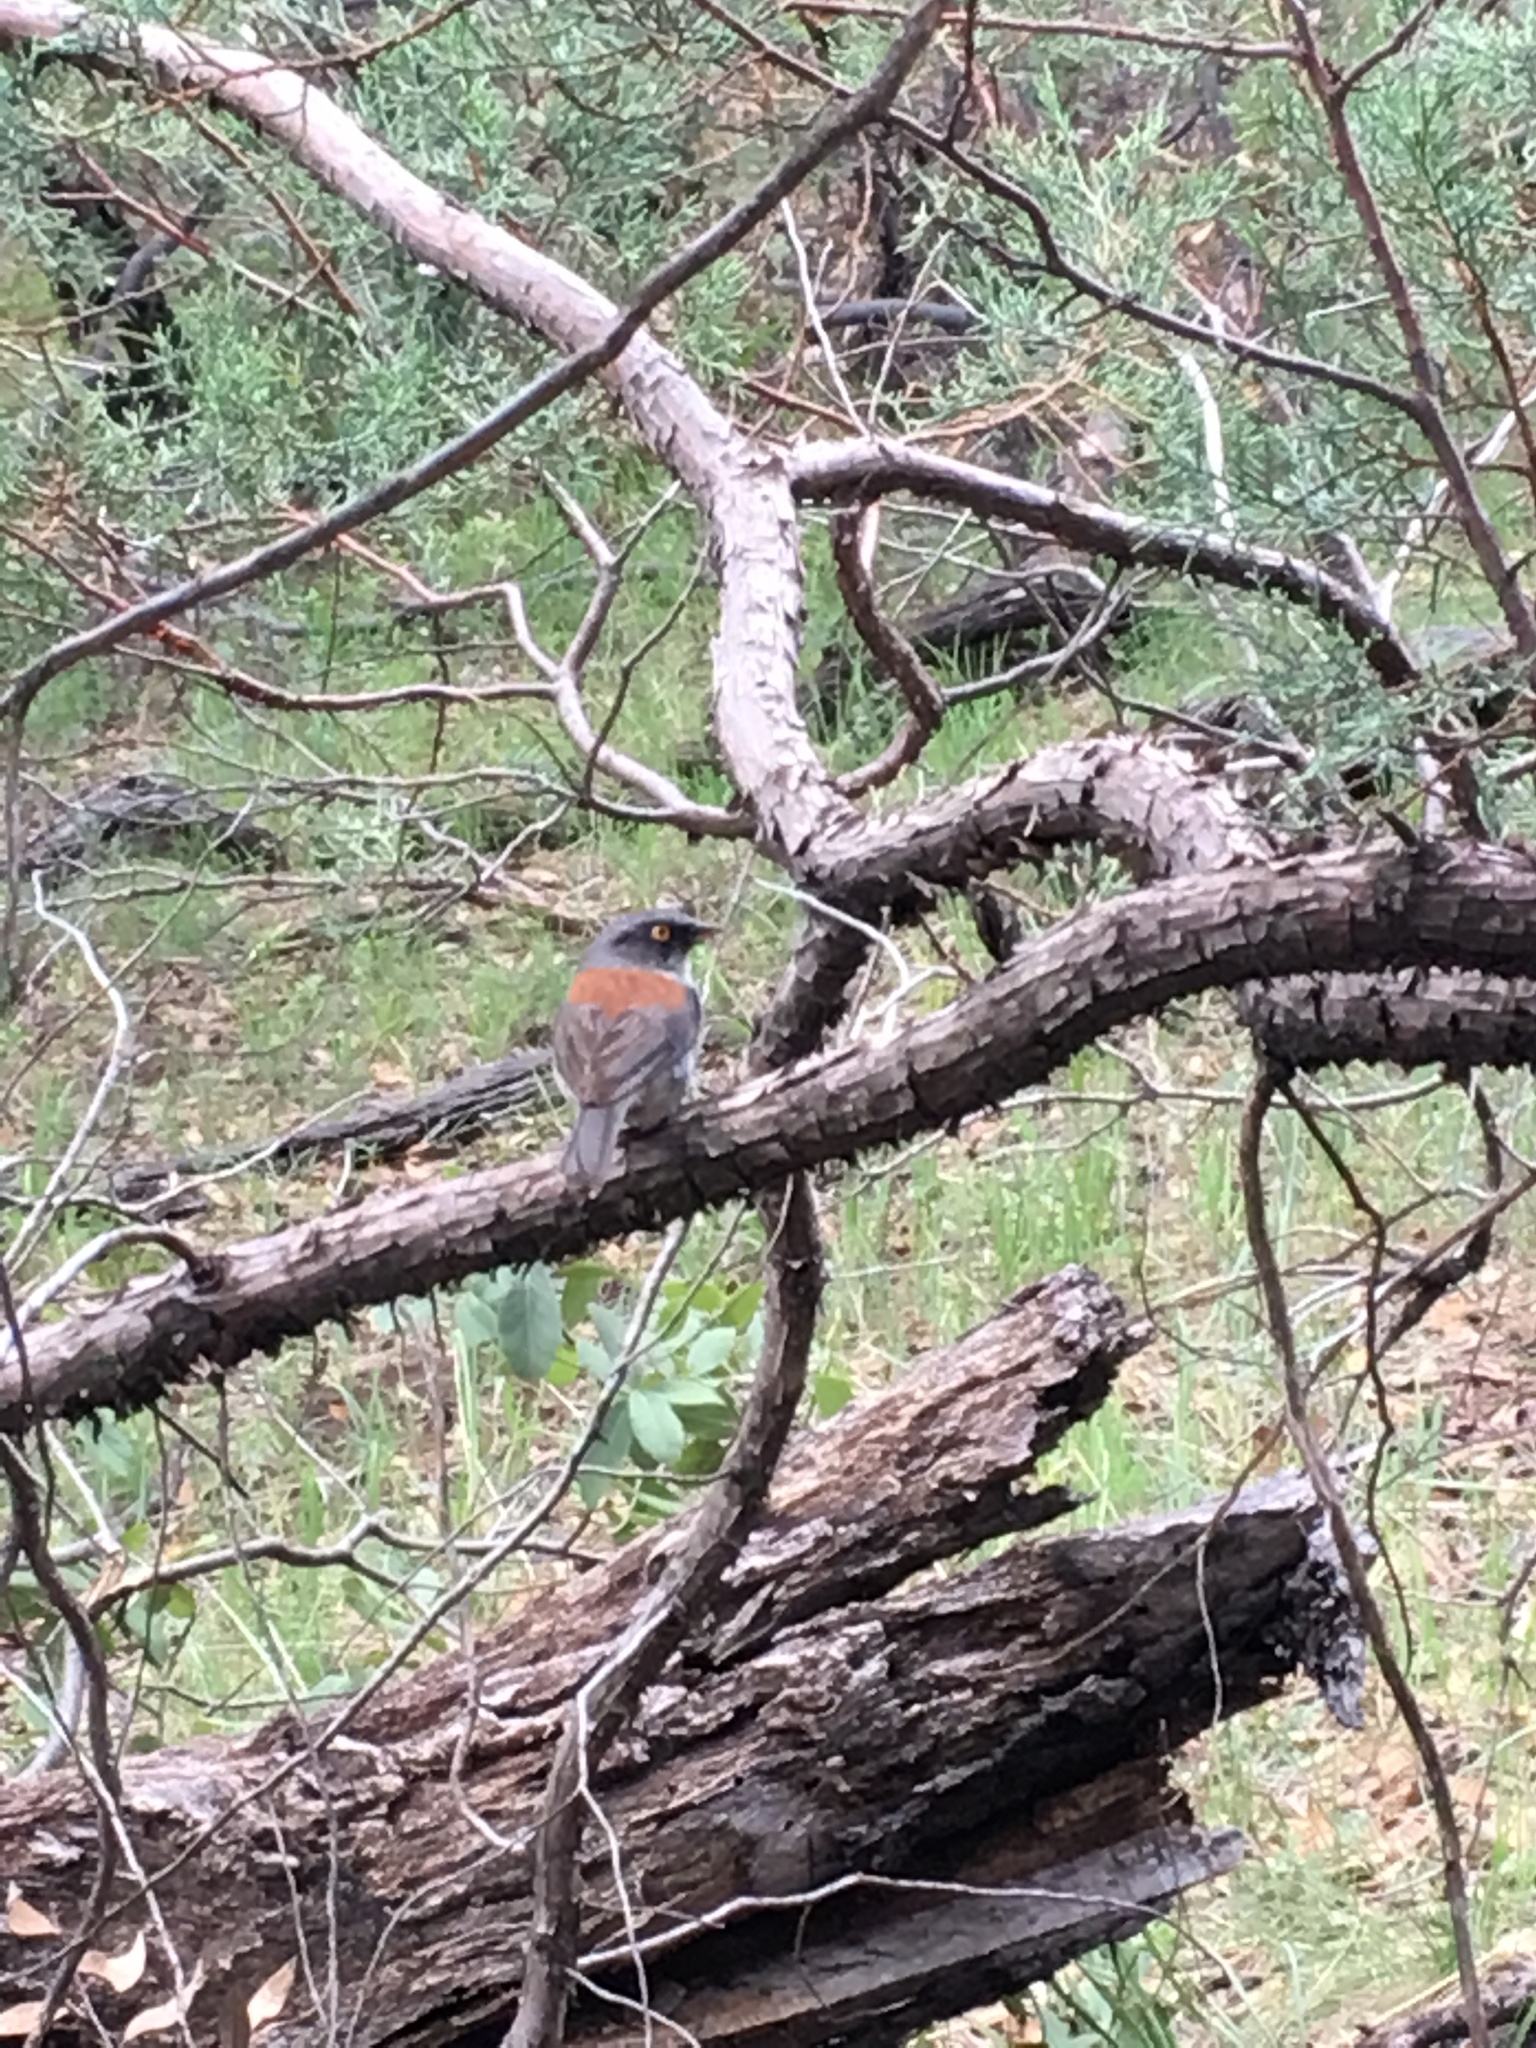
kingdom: Animalia
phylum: Chordata
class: Aves
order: Passeriformes
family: Passerellidae
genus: Junco
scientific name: Junco phaeonotus
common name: Yellow-eyed junco
